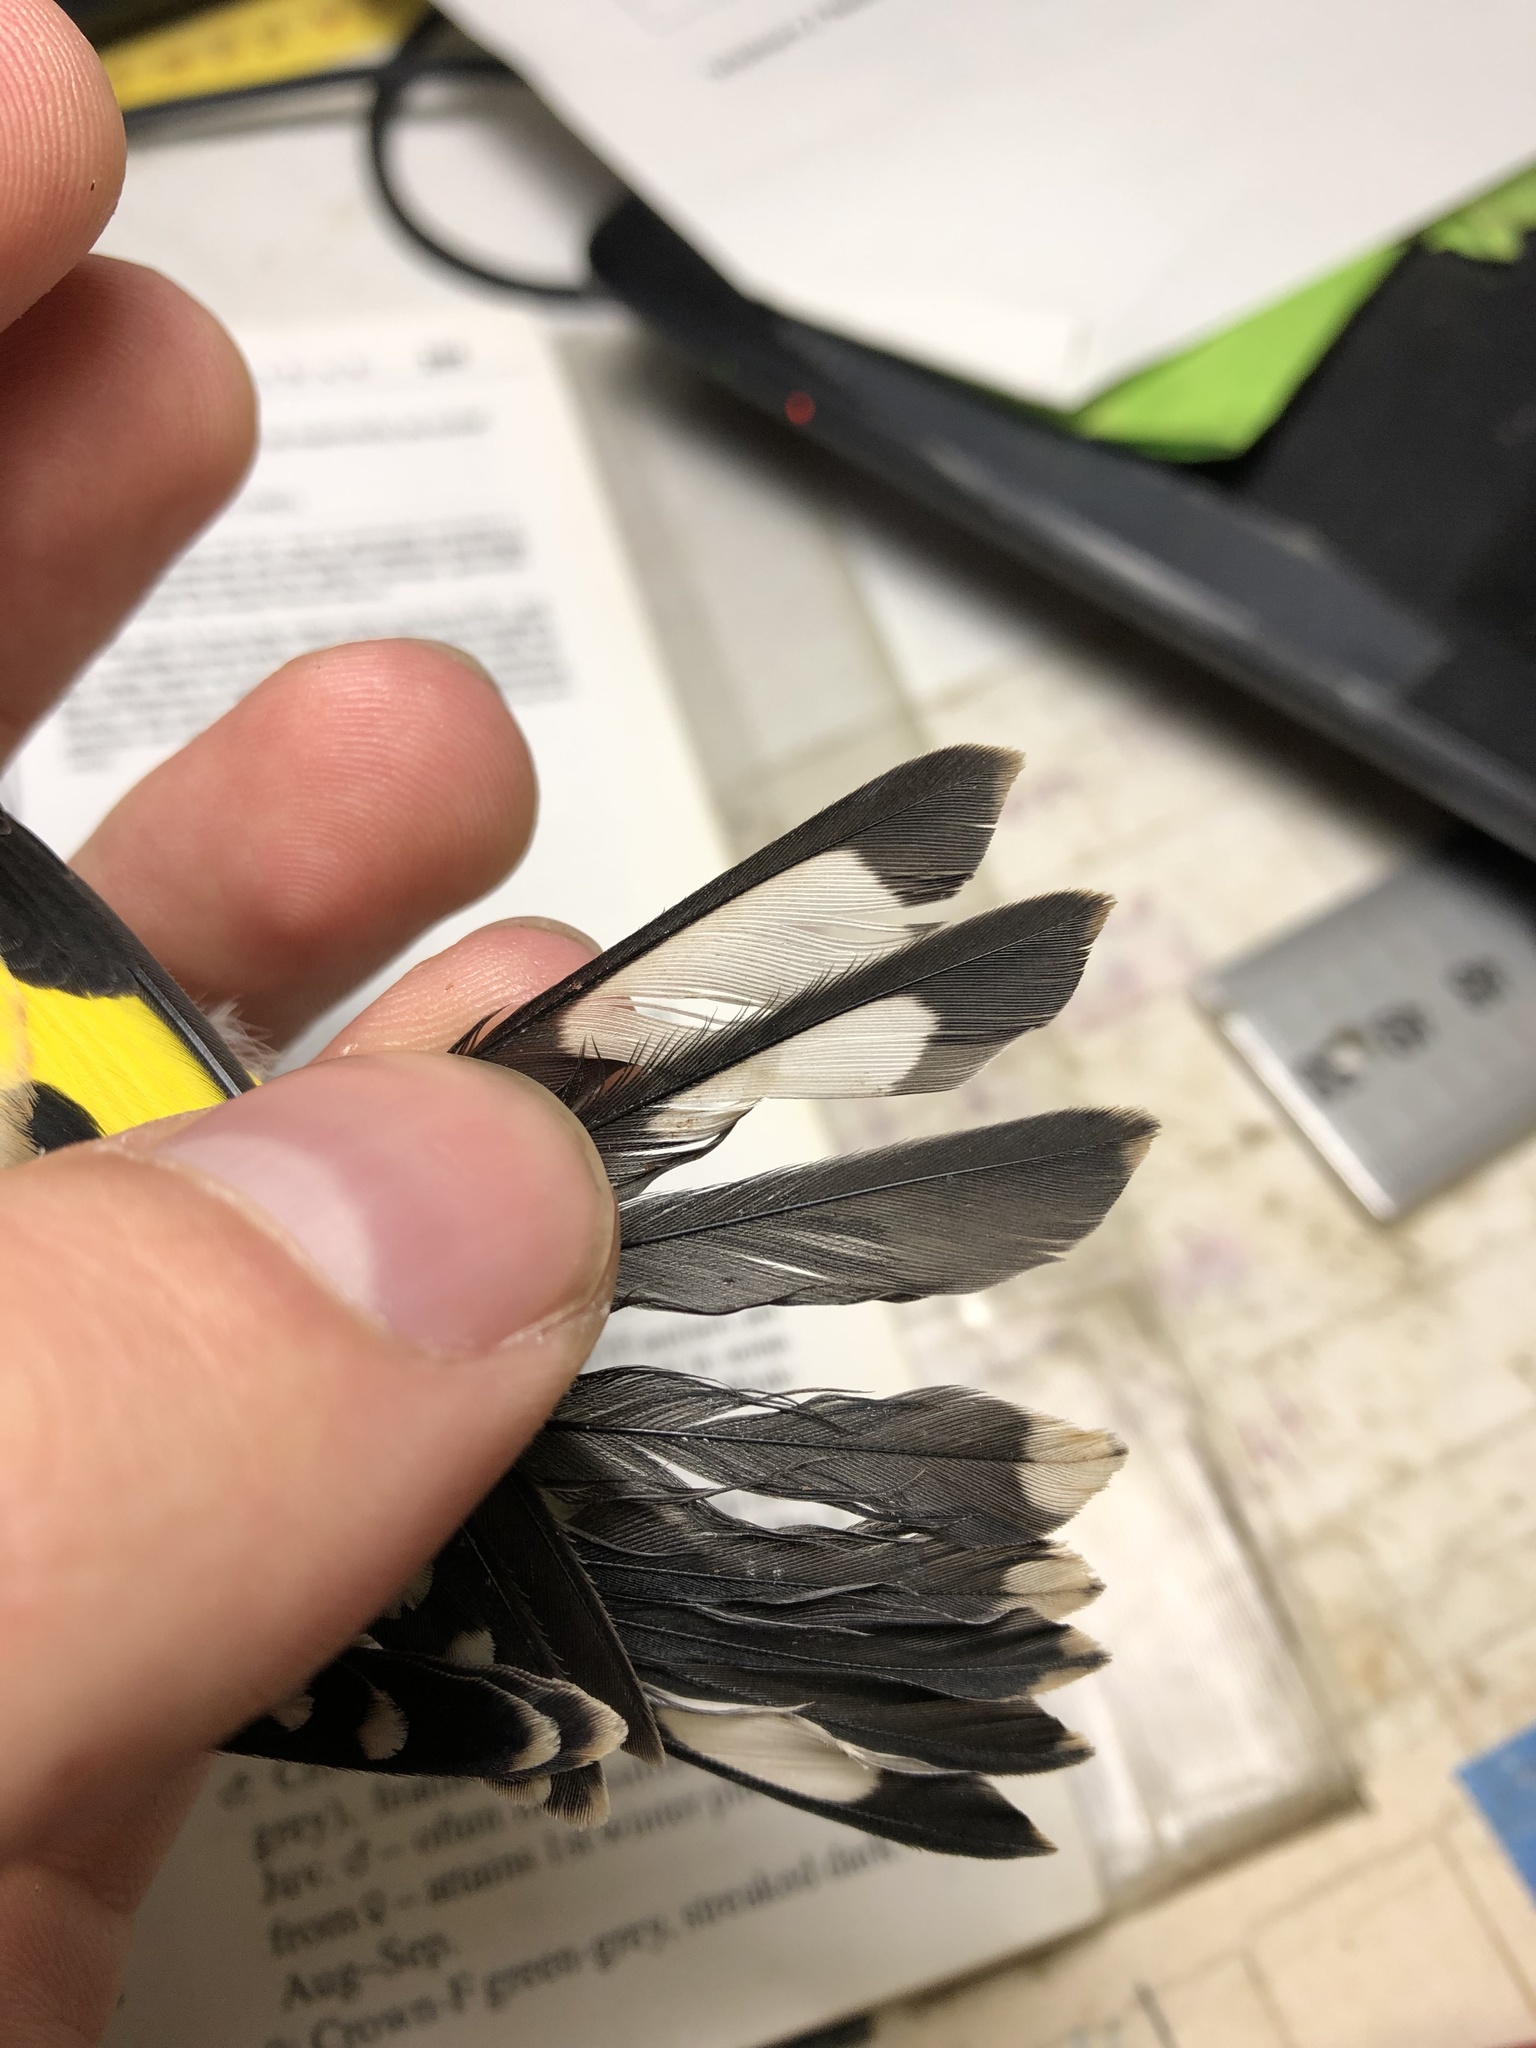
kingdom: Animalia
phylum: Chordata
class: Aves
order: Passeriformes
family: Fringillidae
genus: Carduelis
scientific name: Carduelis carduelis
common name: European goldfinch
